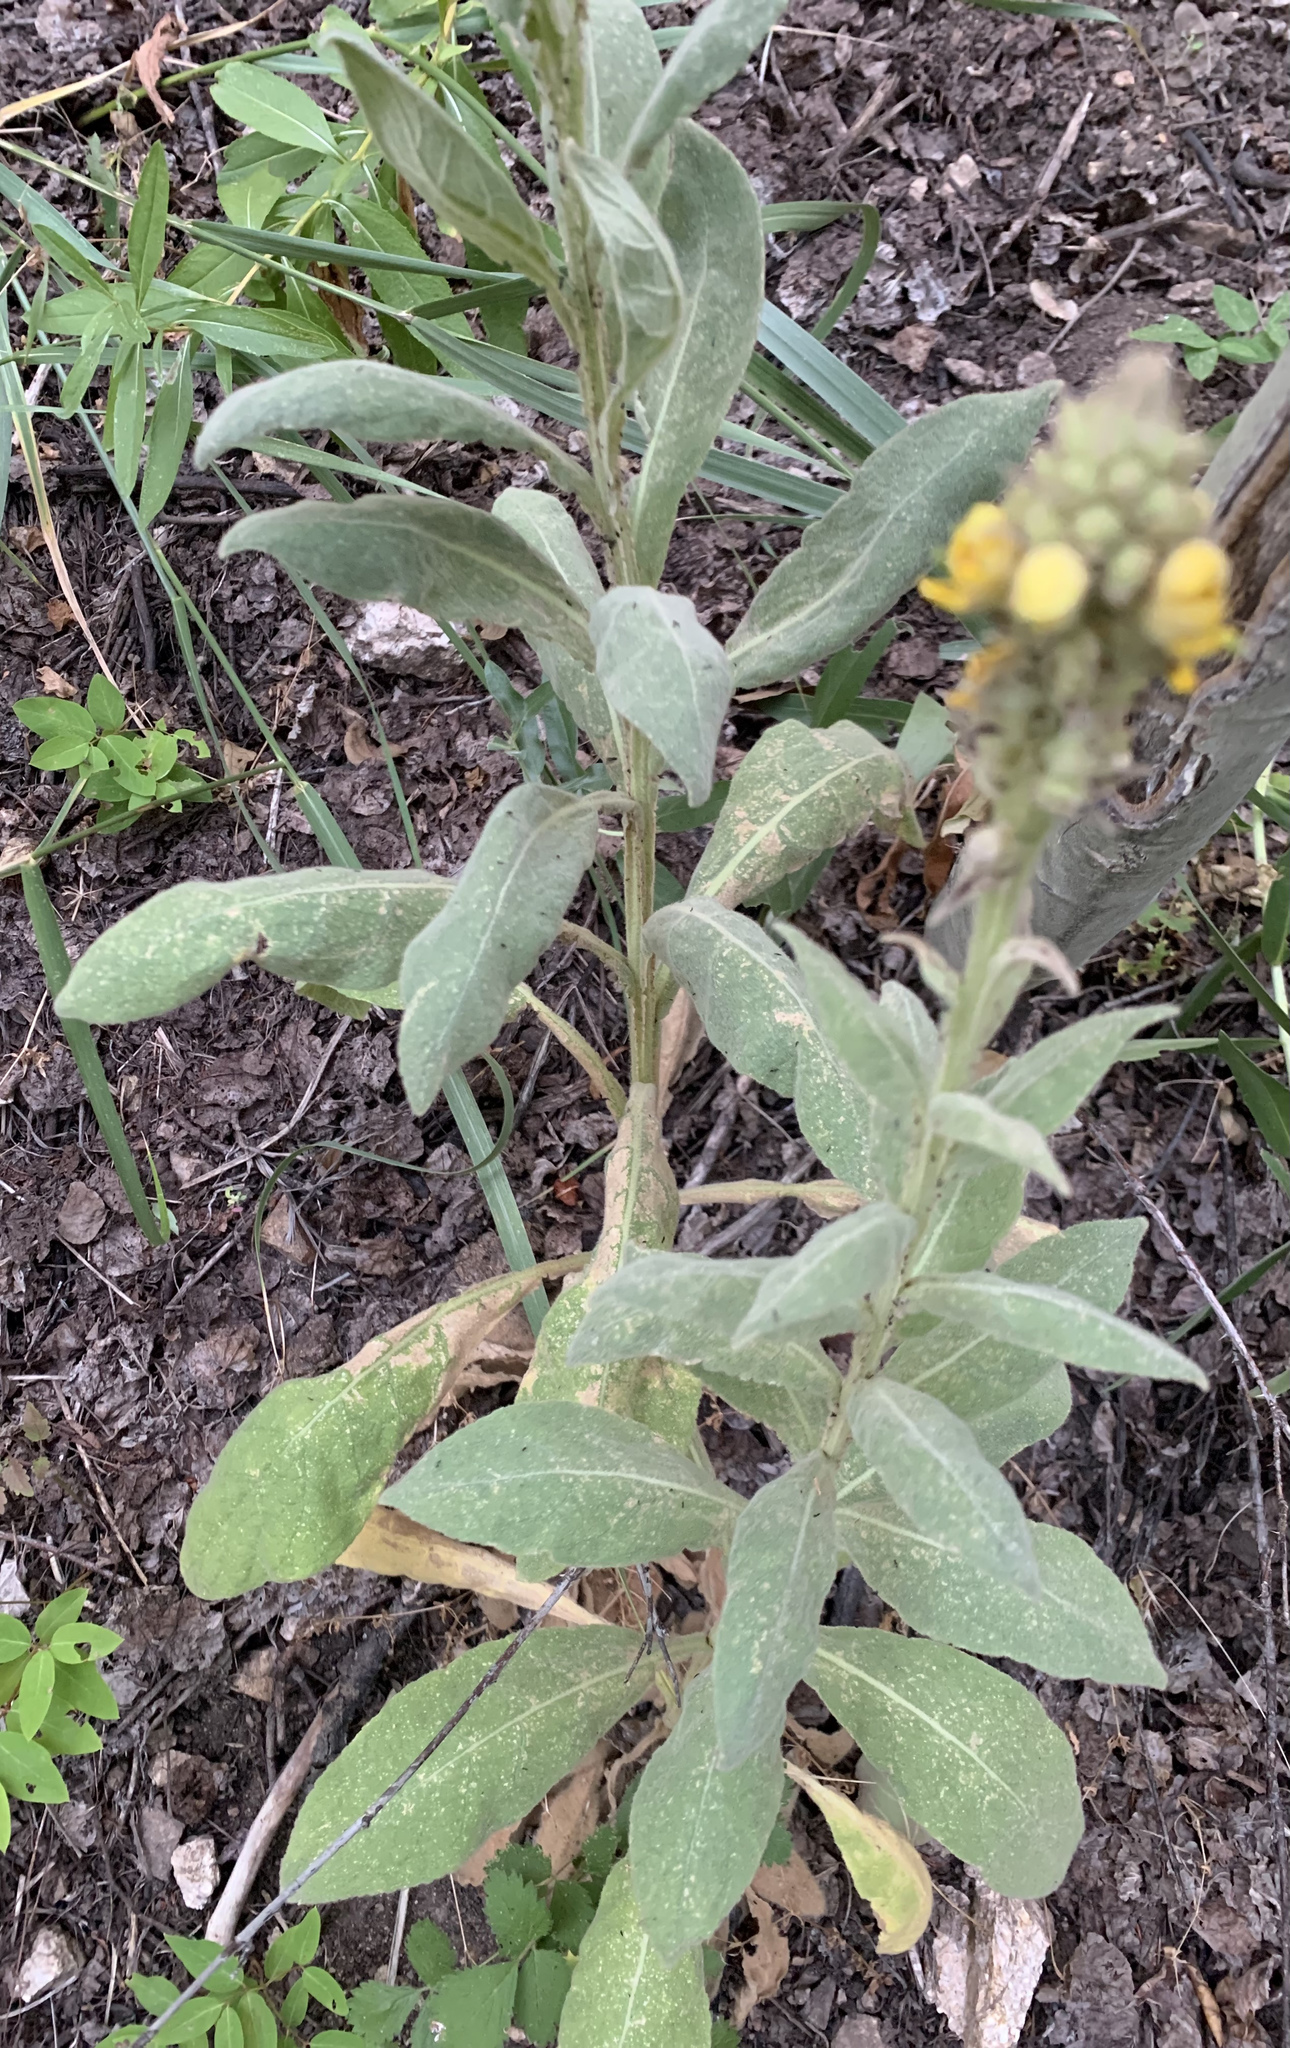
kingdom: Plantae
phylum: Tracheophyta
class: Magnoliopsida
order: Lamiales
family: Scrophulariaceae
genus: Verbascum
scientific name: Verbascum thapsus
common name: Common mullein
